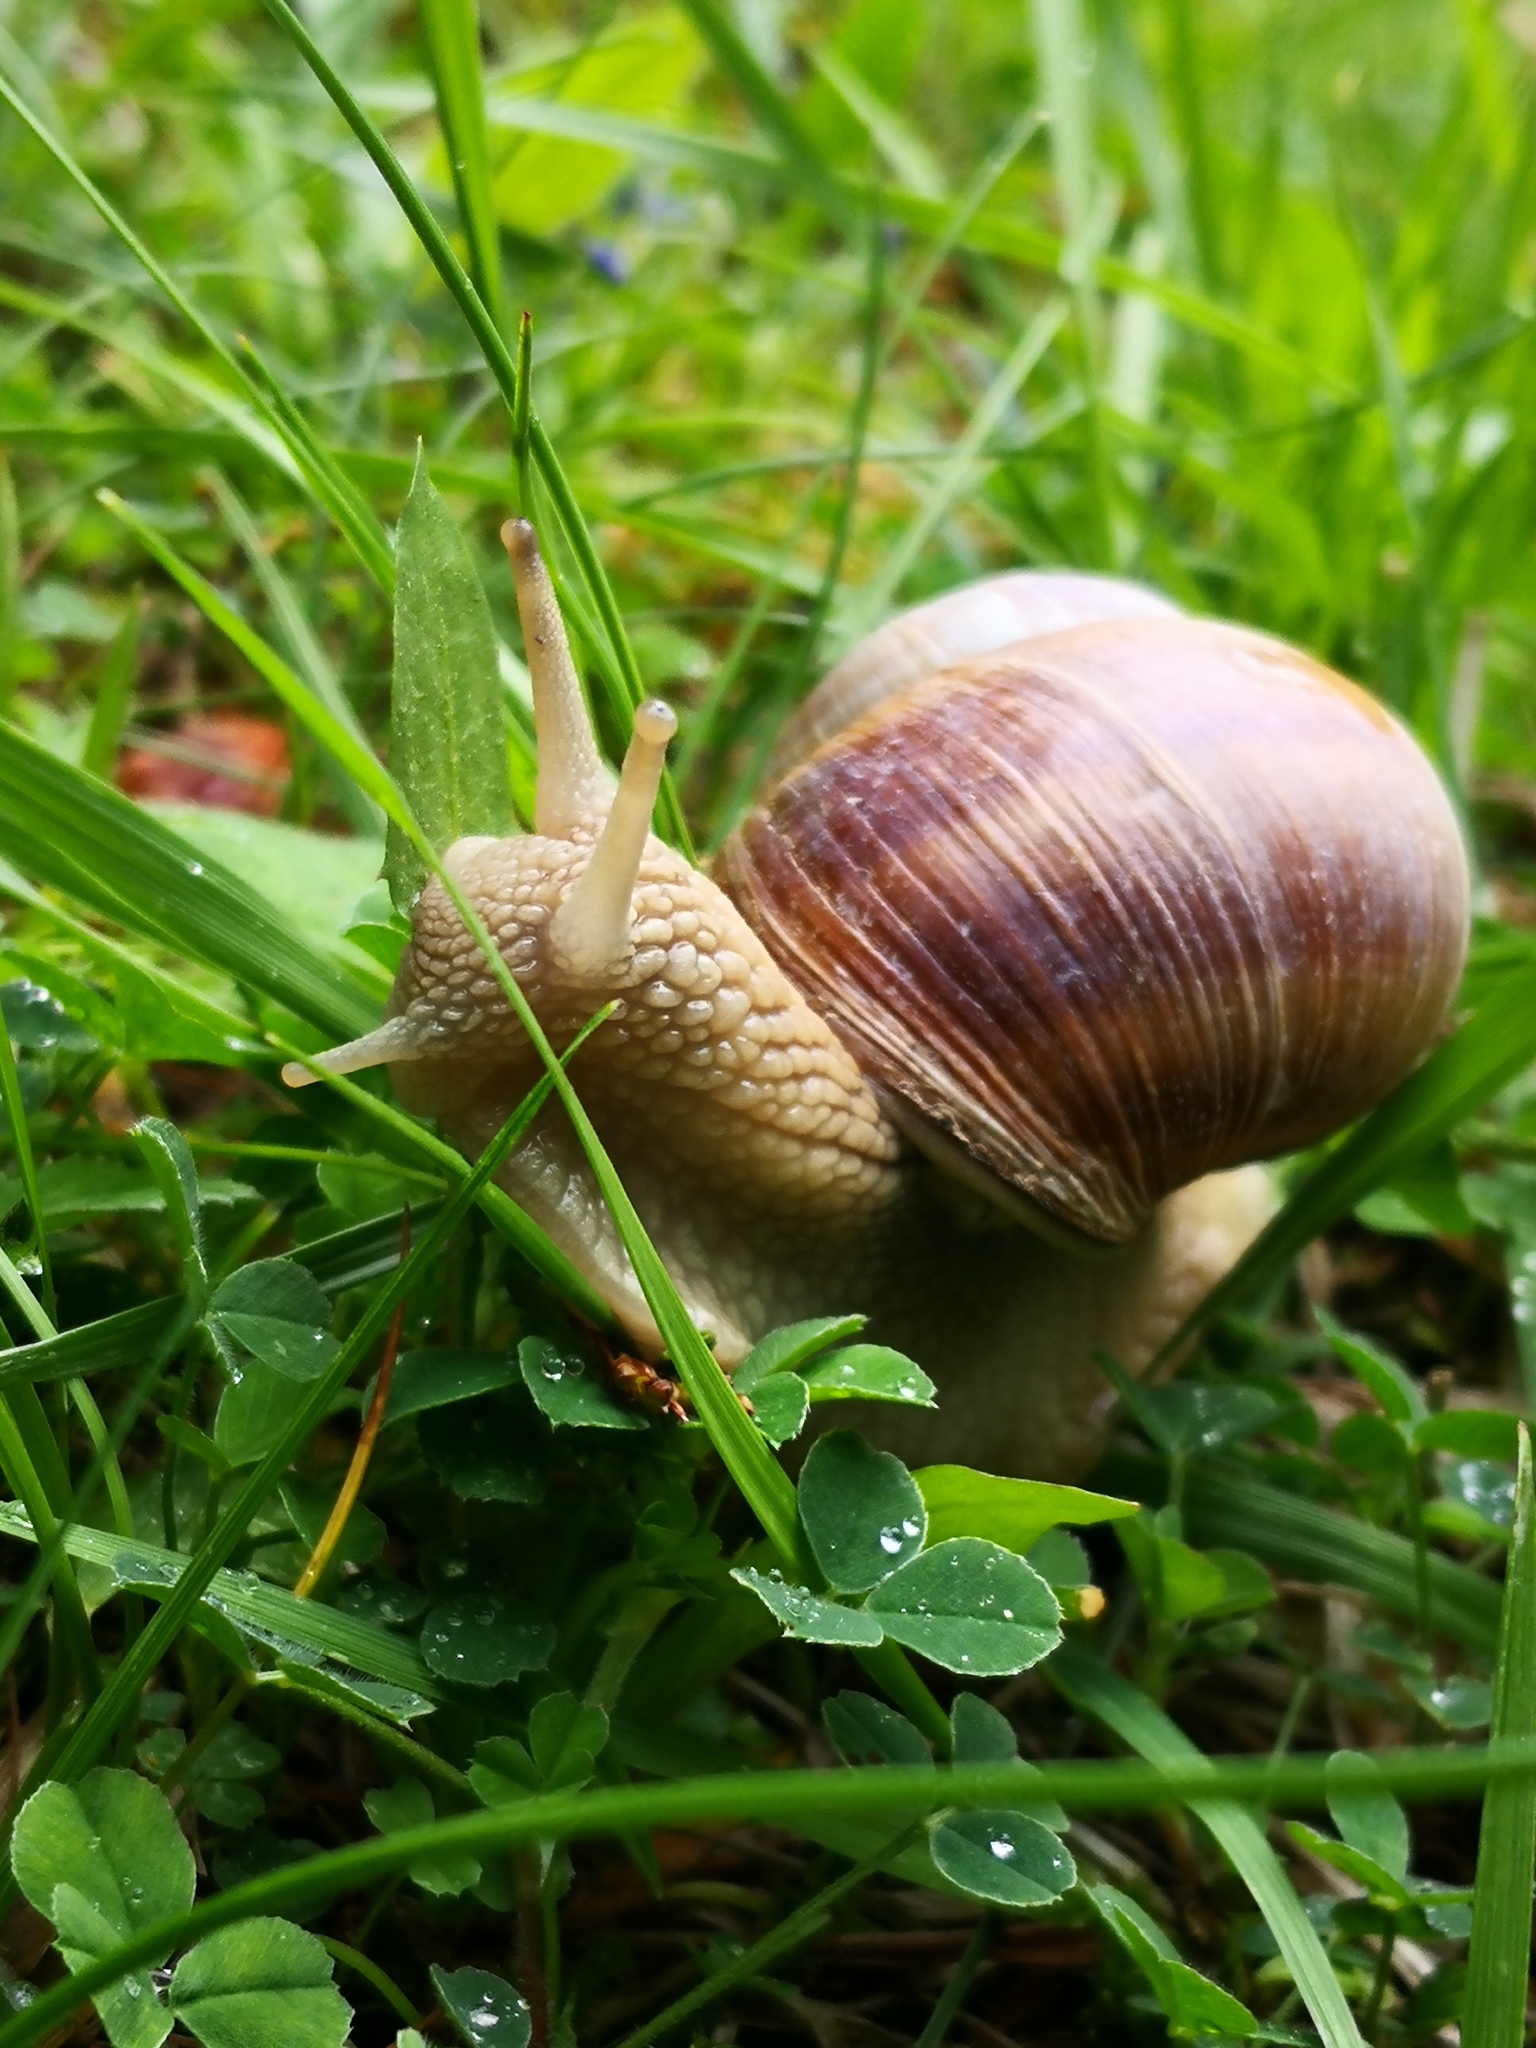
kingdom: Animalia
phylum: Mollusca
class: Gastropoda
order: Stylommatophora
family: Helicidae
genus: Helix
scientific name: Helix pomatia
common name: Roman snail
